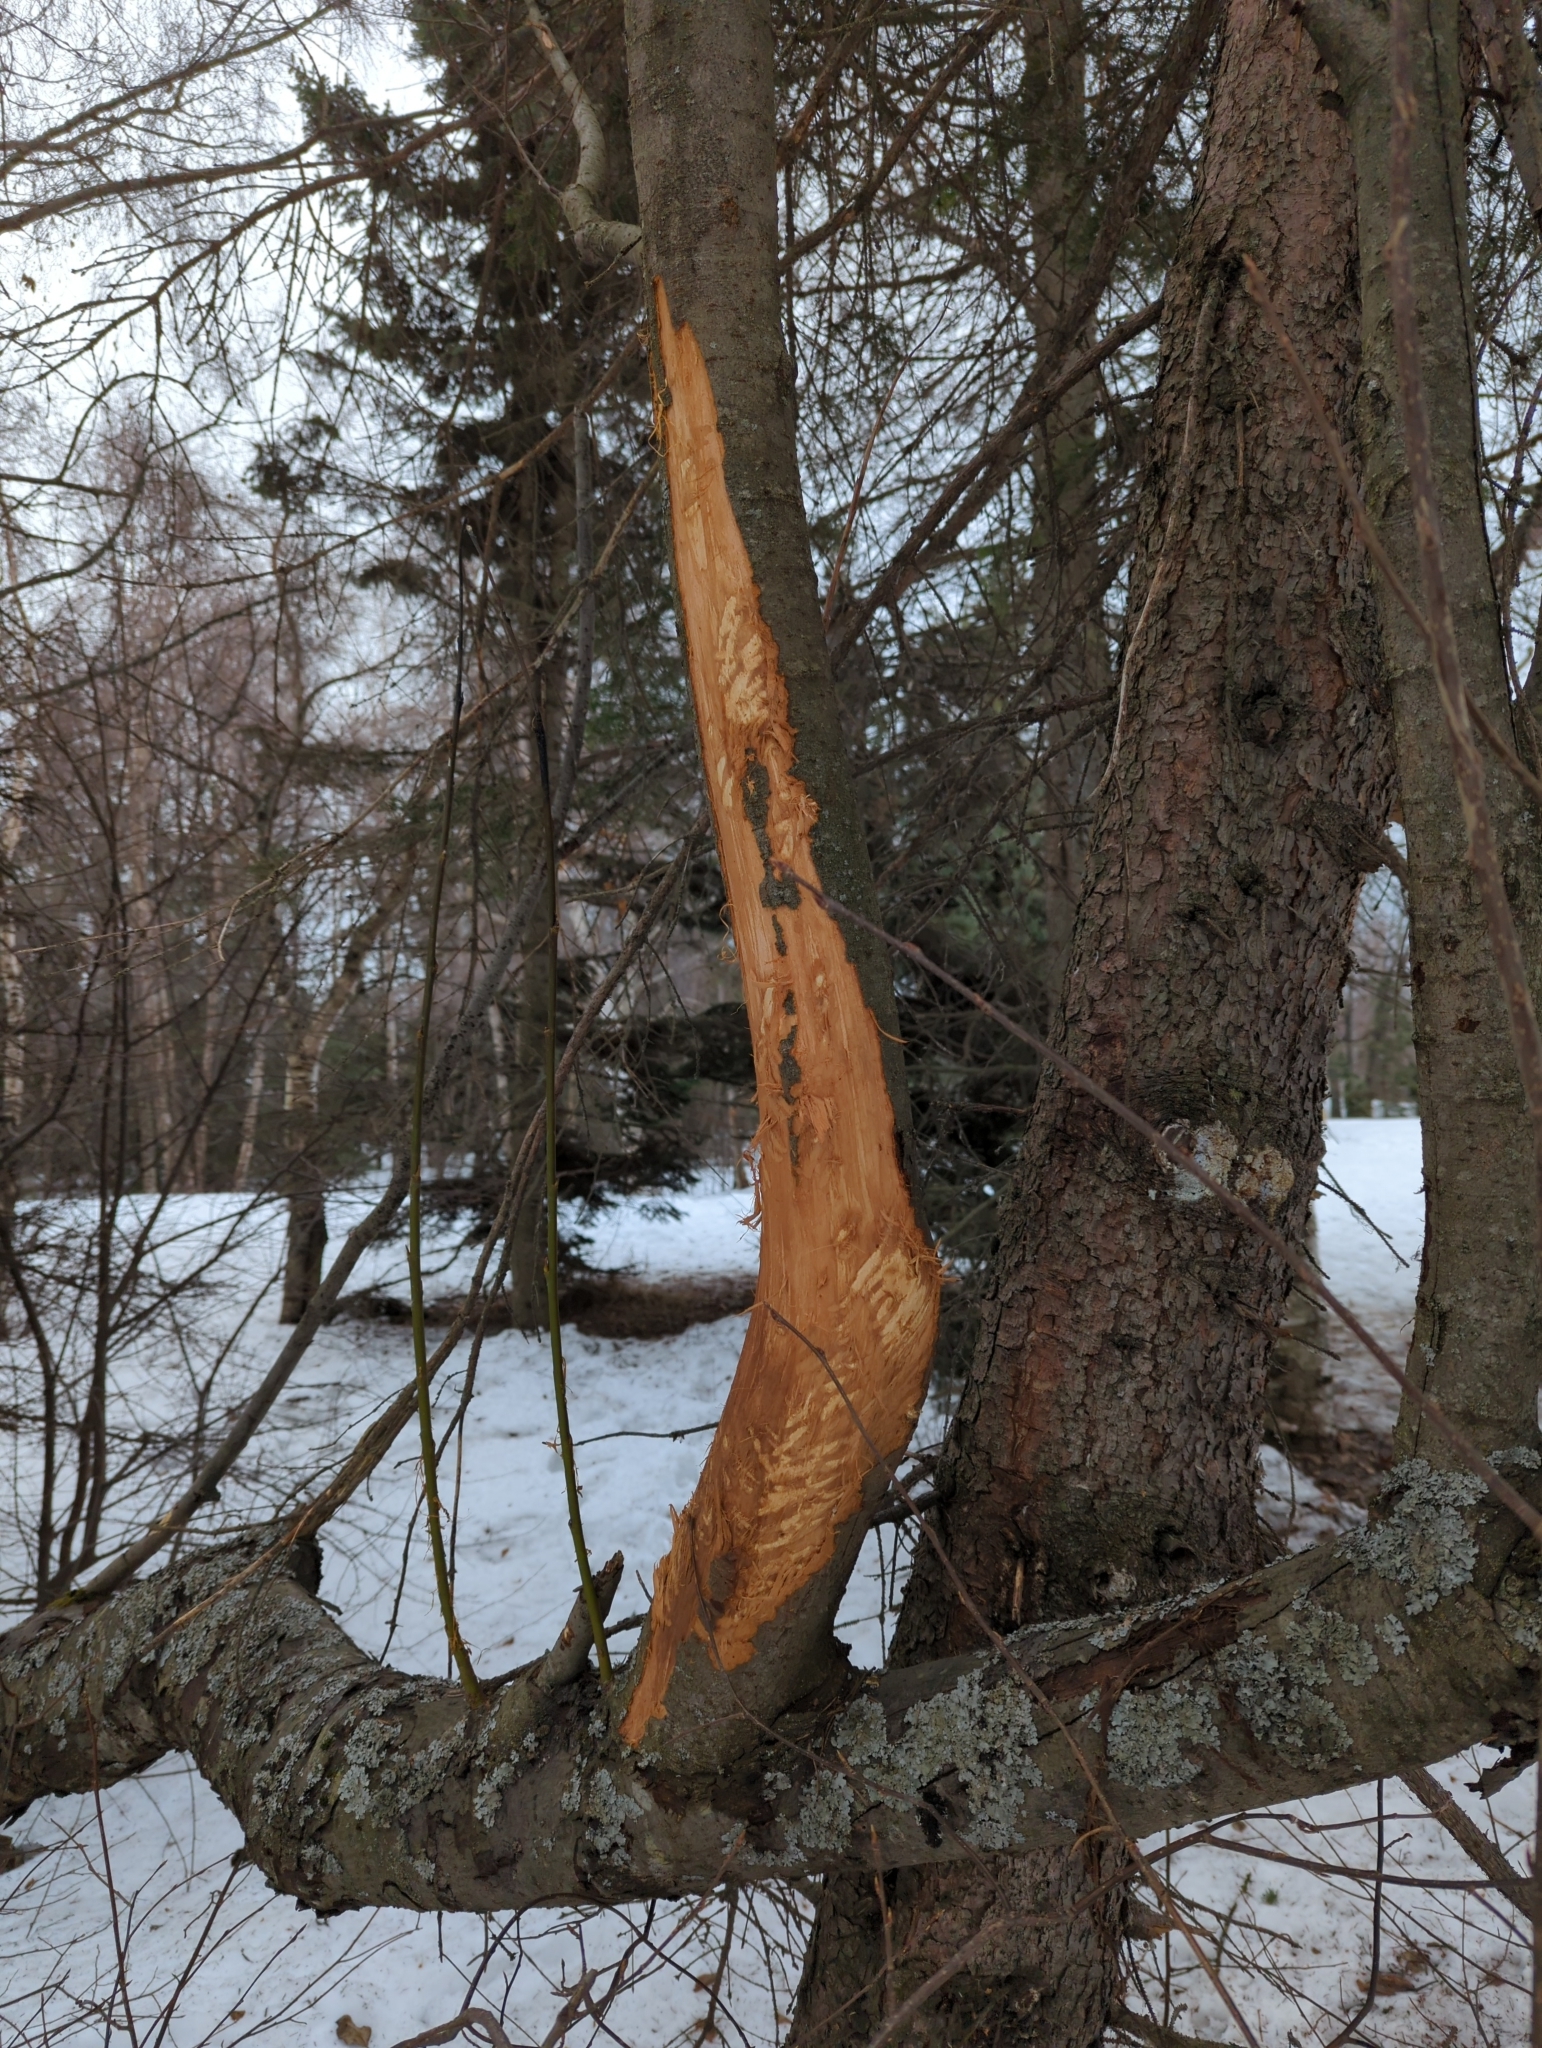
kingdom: Animalia
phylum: Chordata
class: Mammalia
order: Artiodactyla
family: Cervidae
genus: Alces
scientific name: Alces alces
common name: Moose
